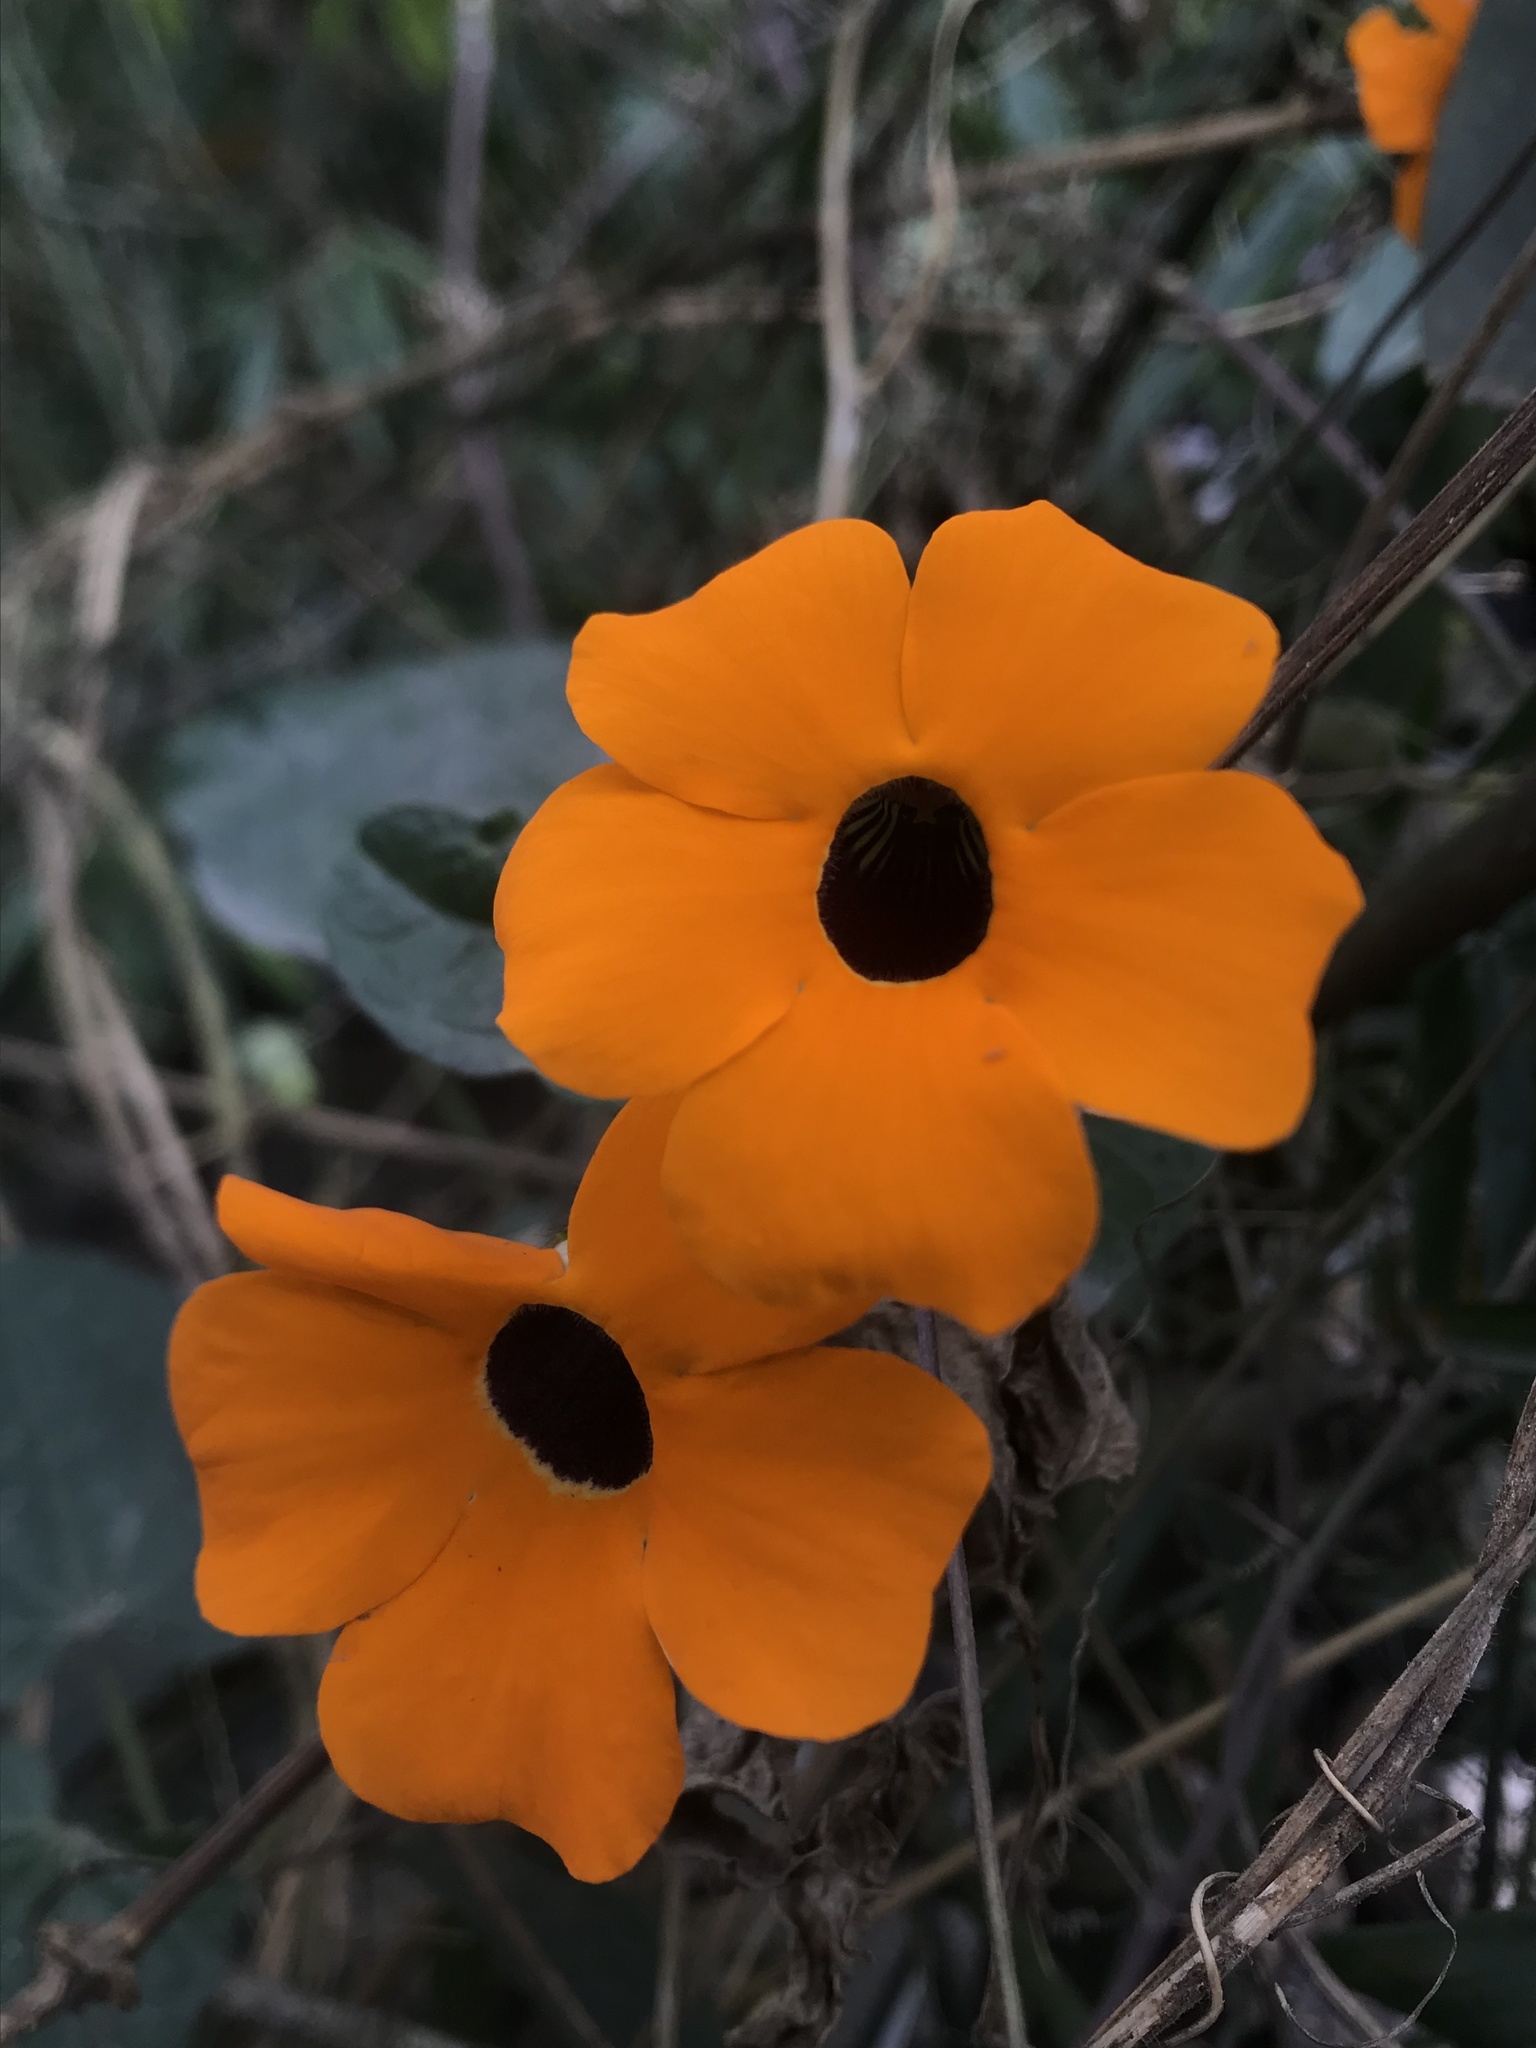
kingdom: Plantae
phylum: Tracheophyta
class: Magnoliopsida
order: Lamiales
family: Acanthaceae
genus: Thunbergia
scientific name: Thunbergia alata
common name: Blackeyed susan vine
